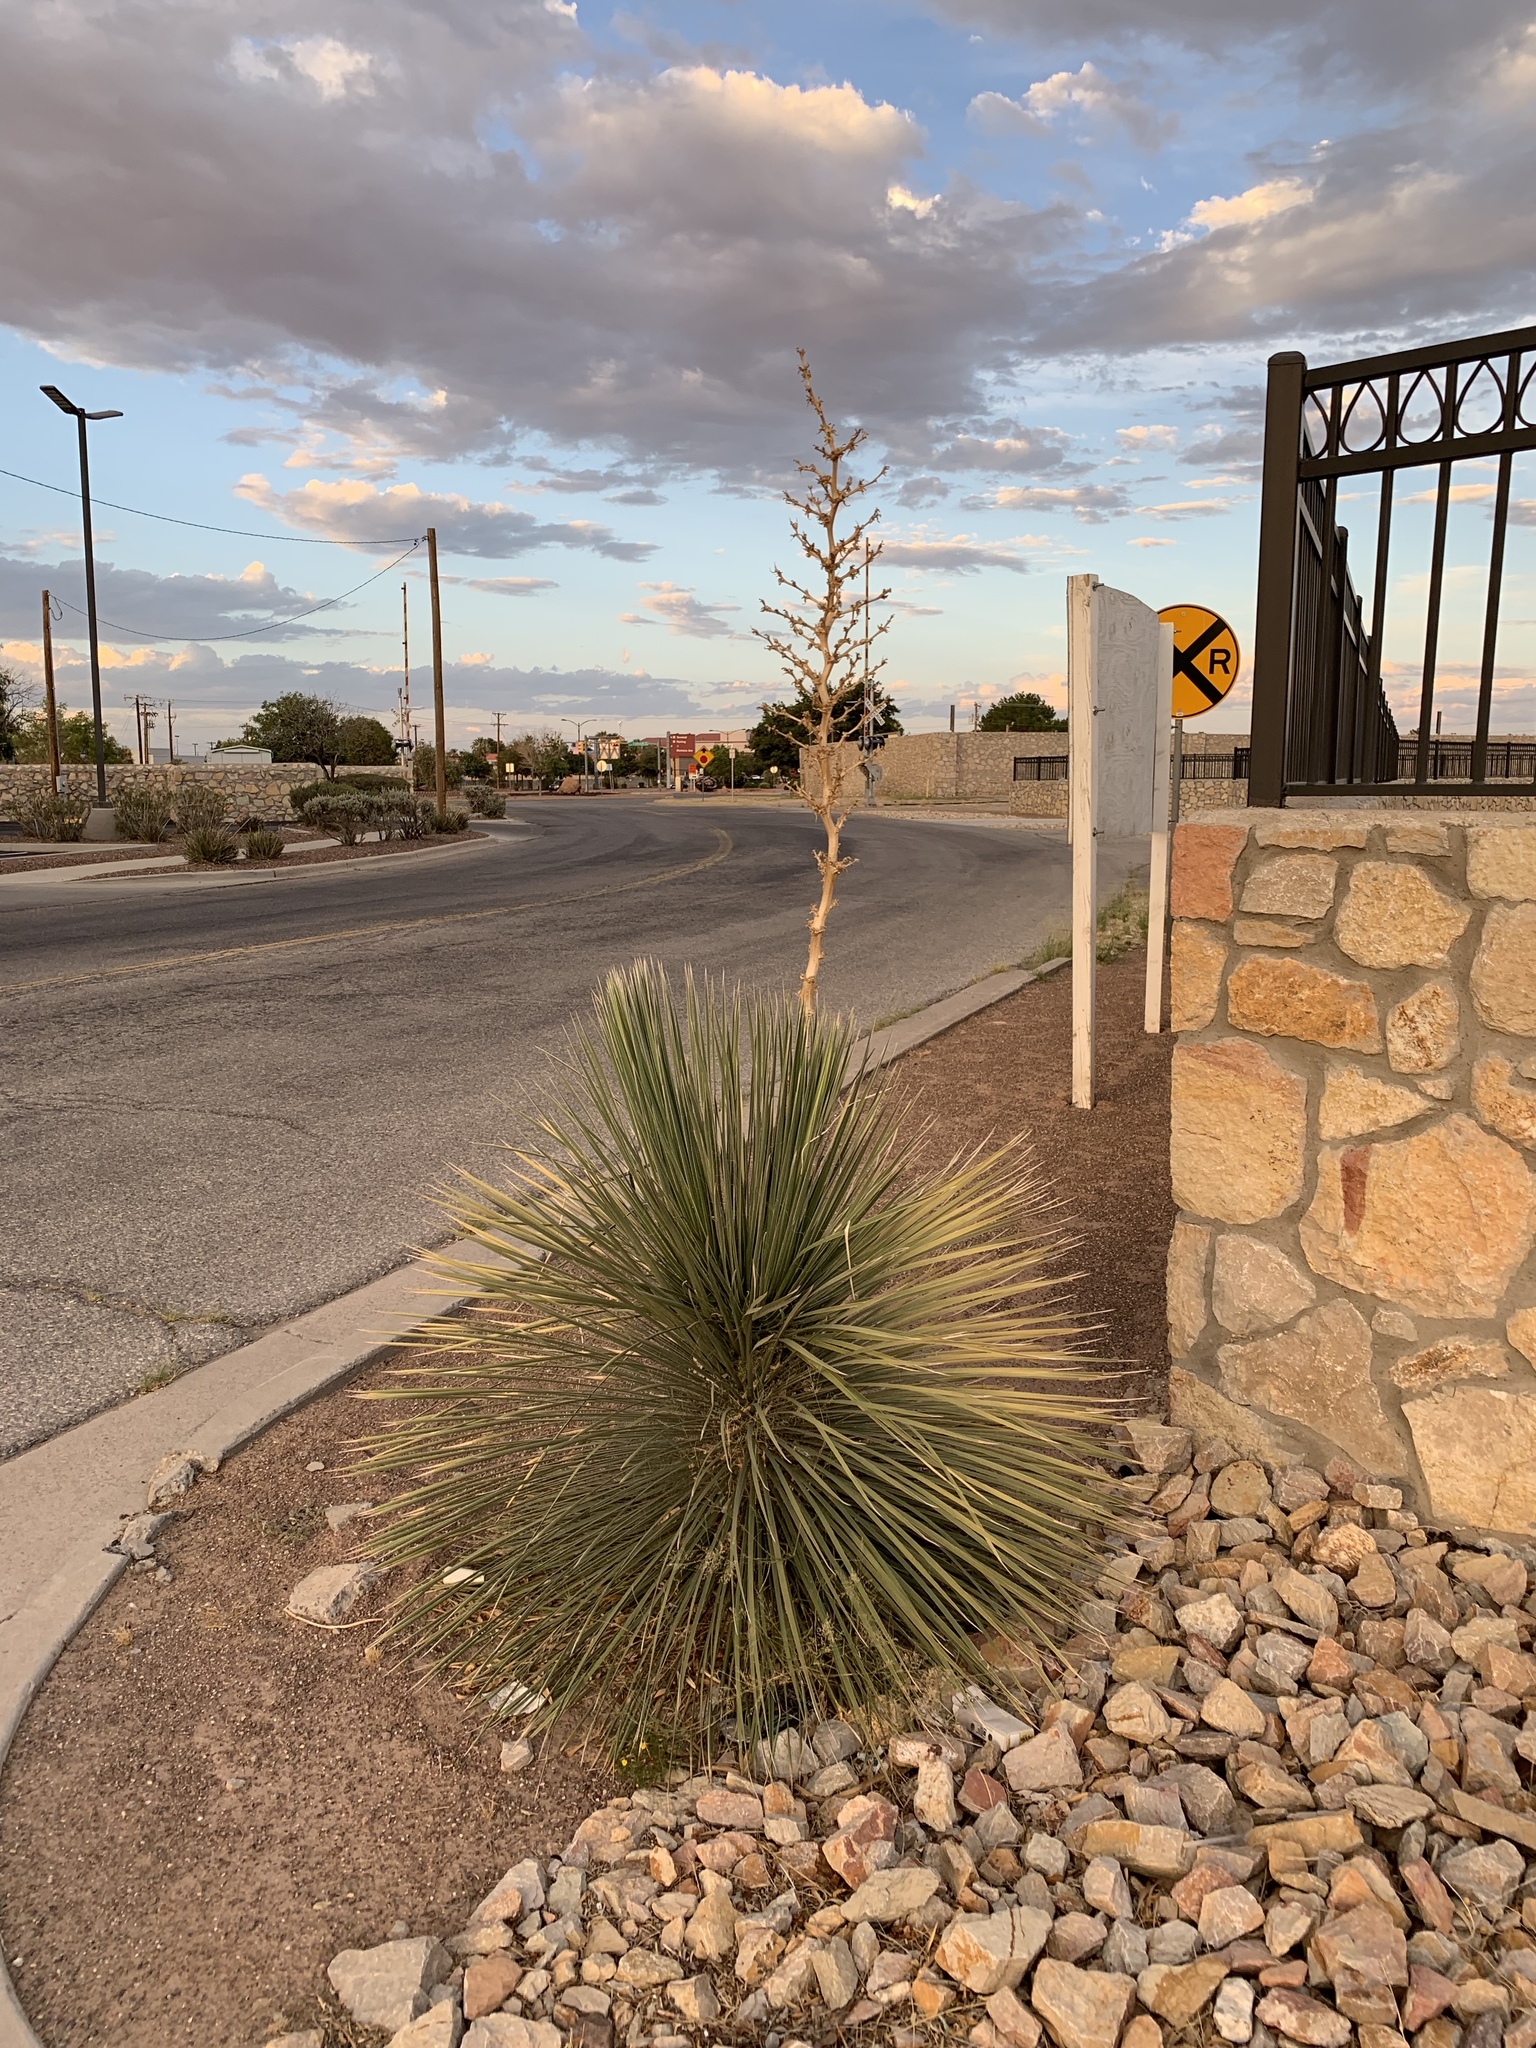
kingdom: Plantae
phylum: Tracheophyta
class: Liliopsida
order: Asparagales
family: Asparagaceae
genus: Yucca
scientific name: Yucca elata
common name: Palmella
